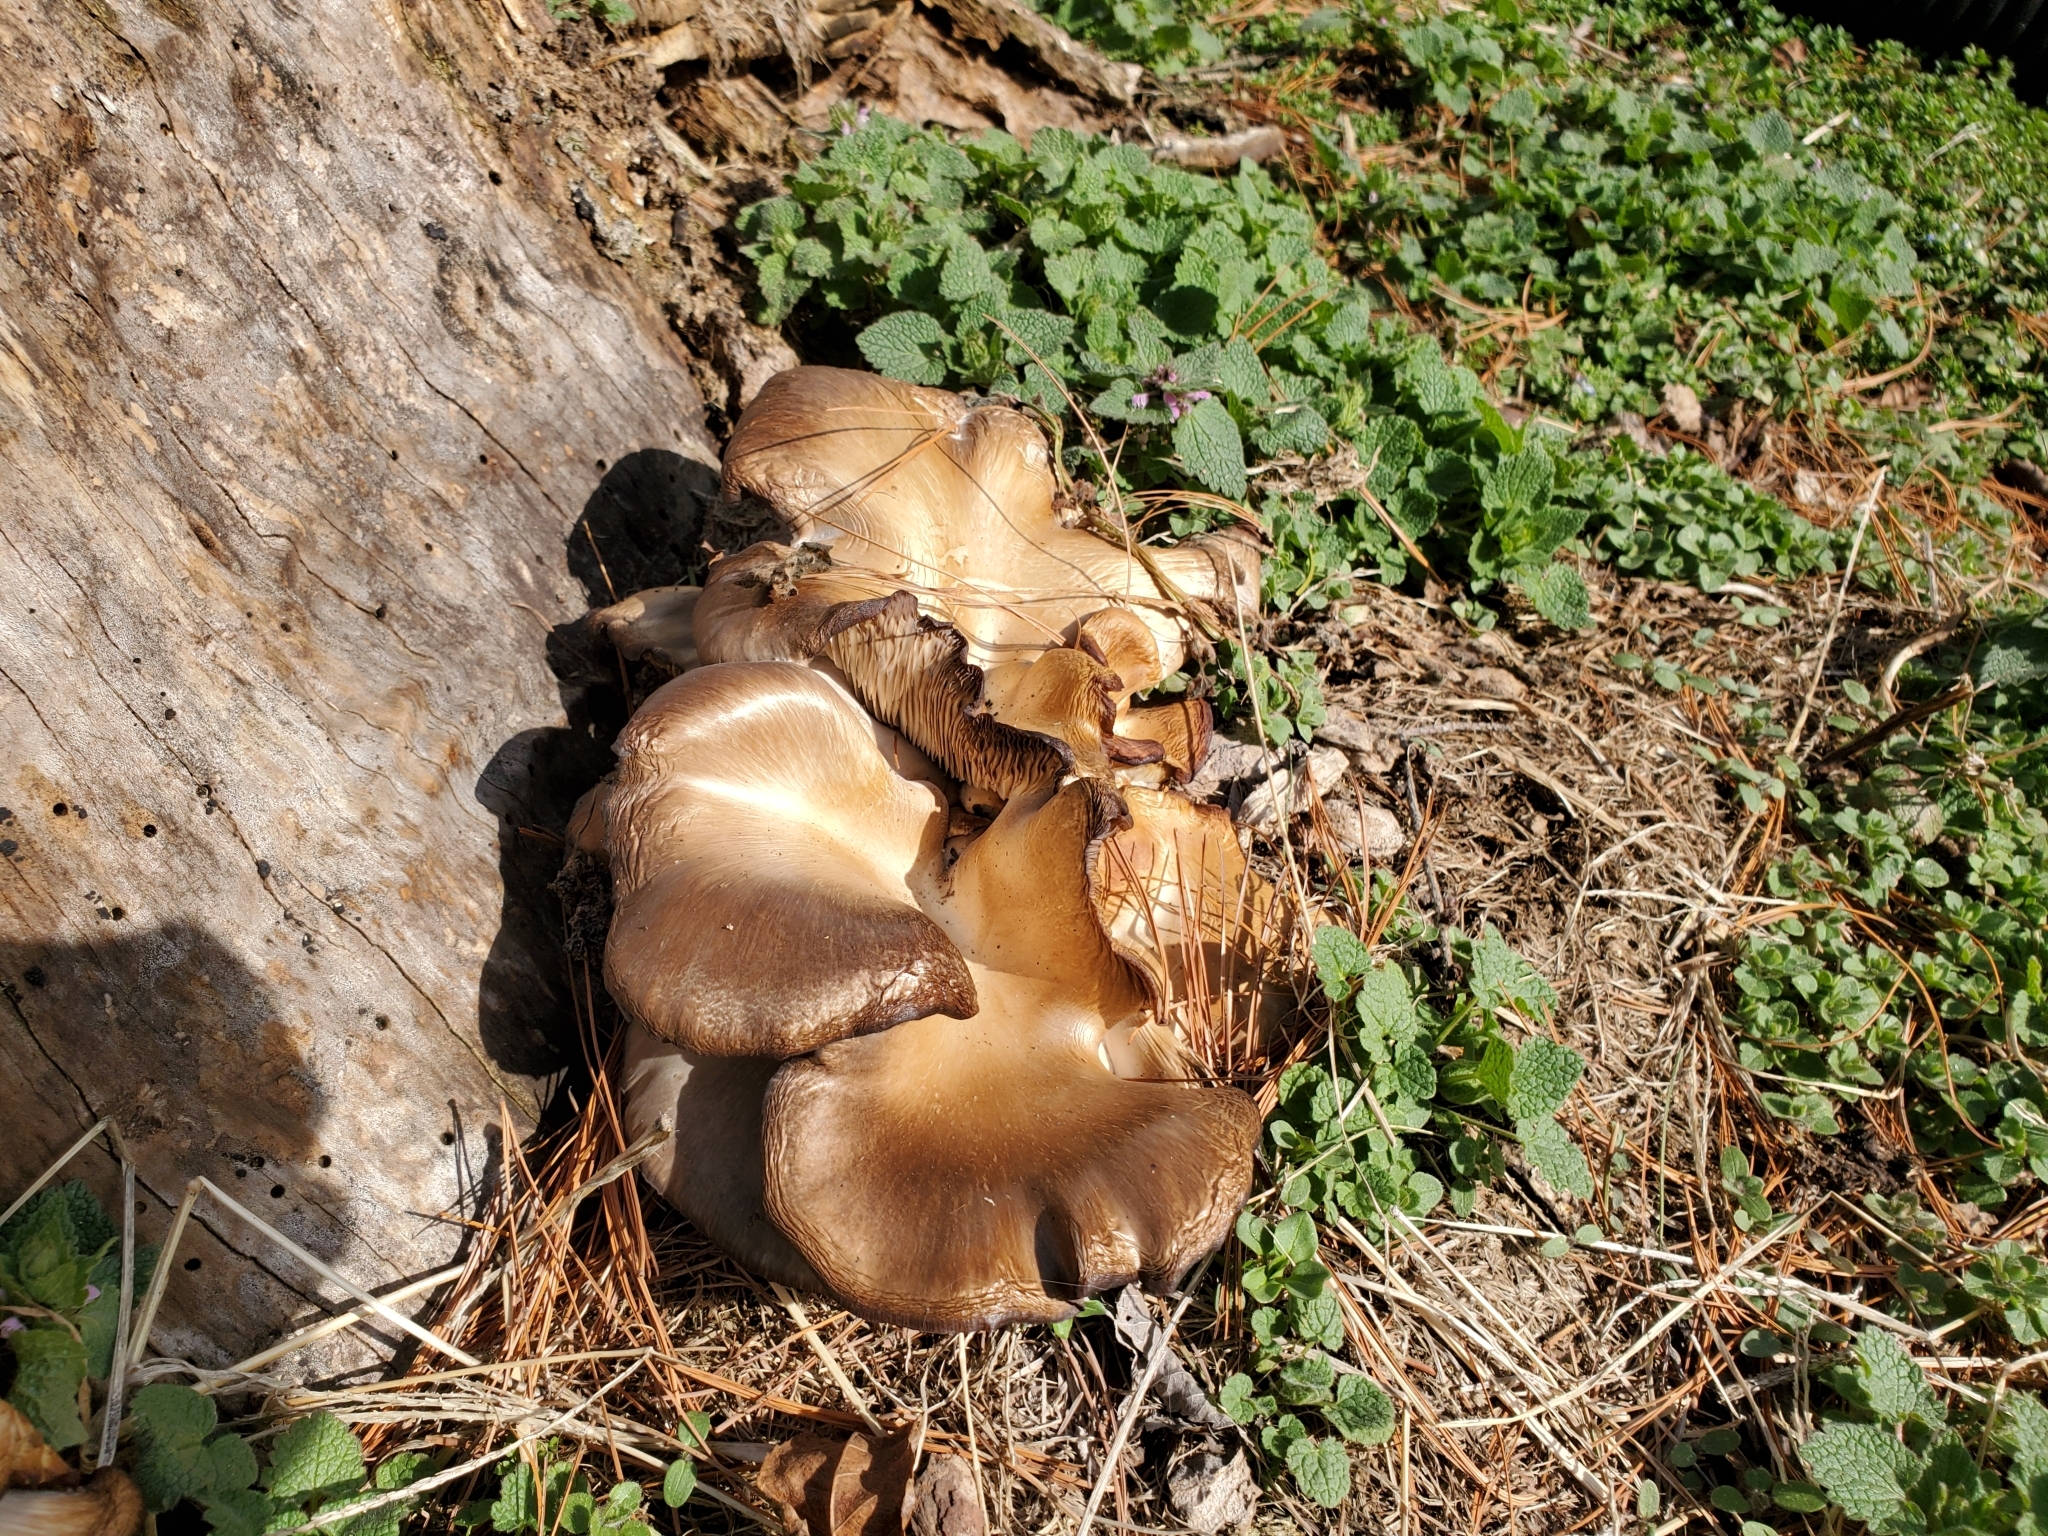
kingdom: Fungi
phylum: Basidiomycota
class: Agaricomycetes
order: Agaricales
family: Pleurotaceae
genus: Pleurotus
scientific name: Pleurotus ostreatus
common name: Oyster mushroom
